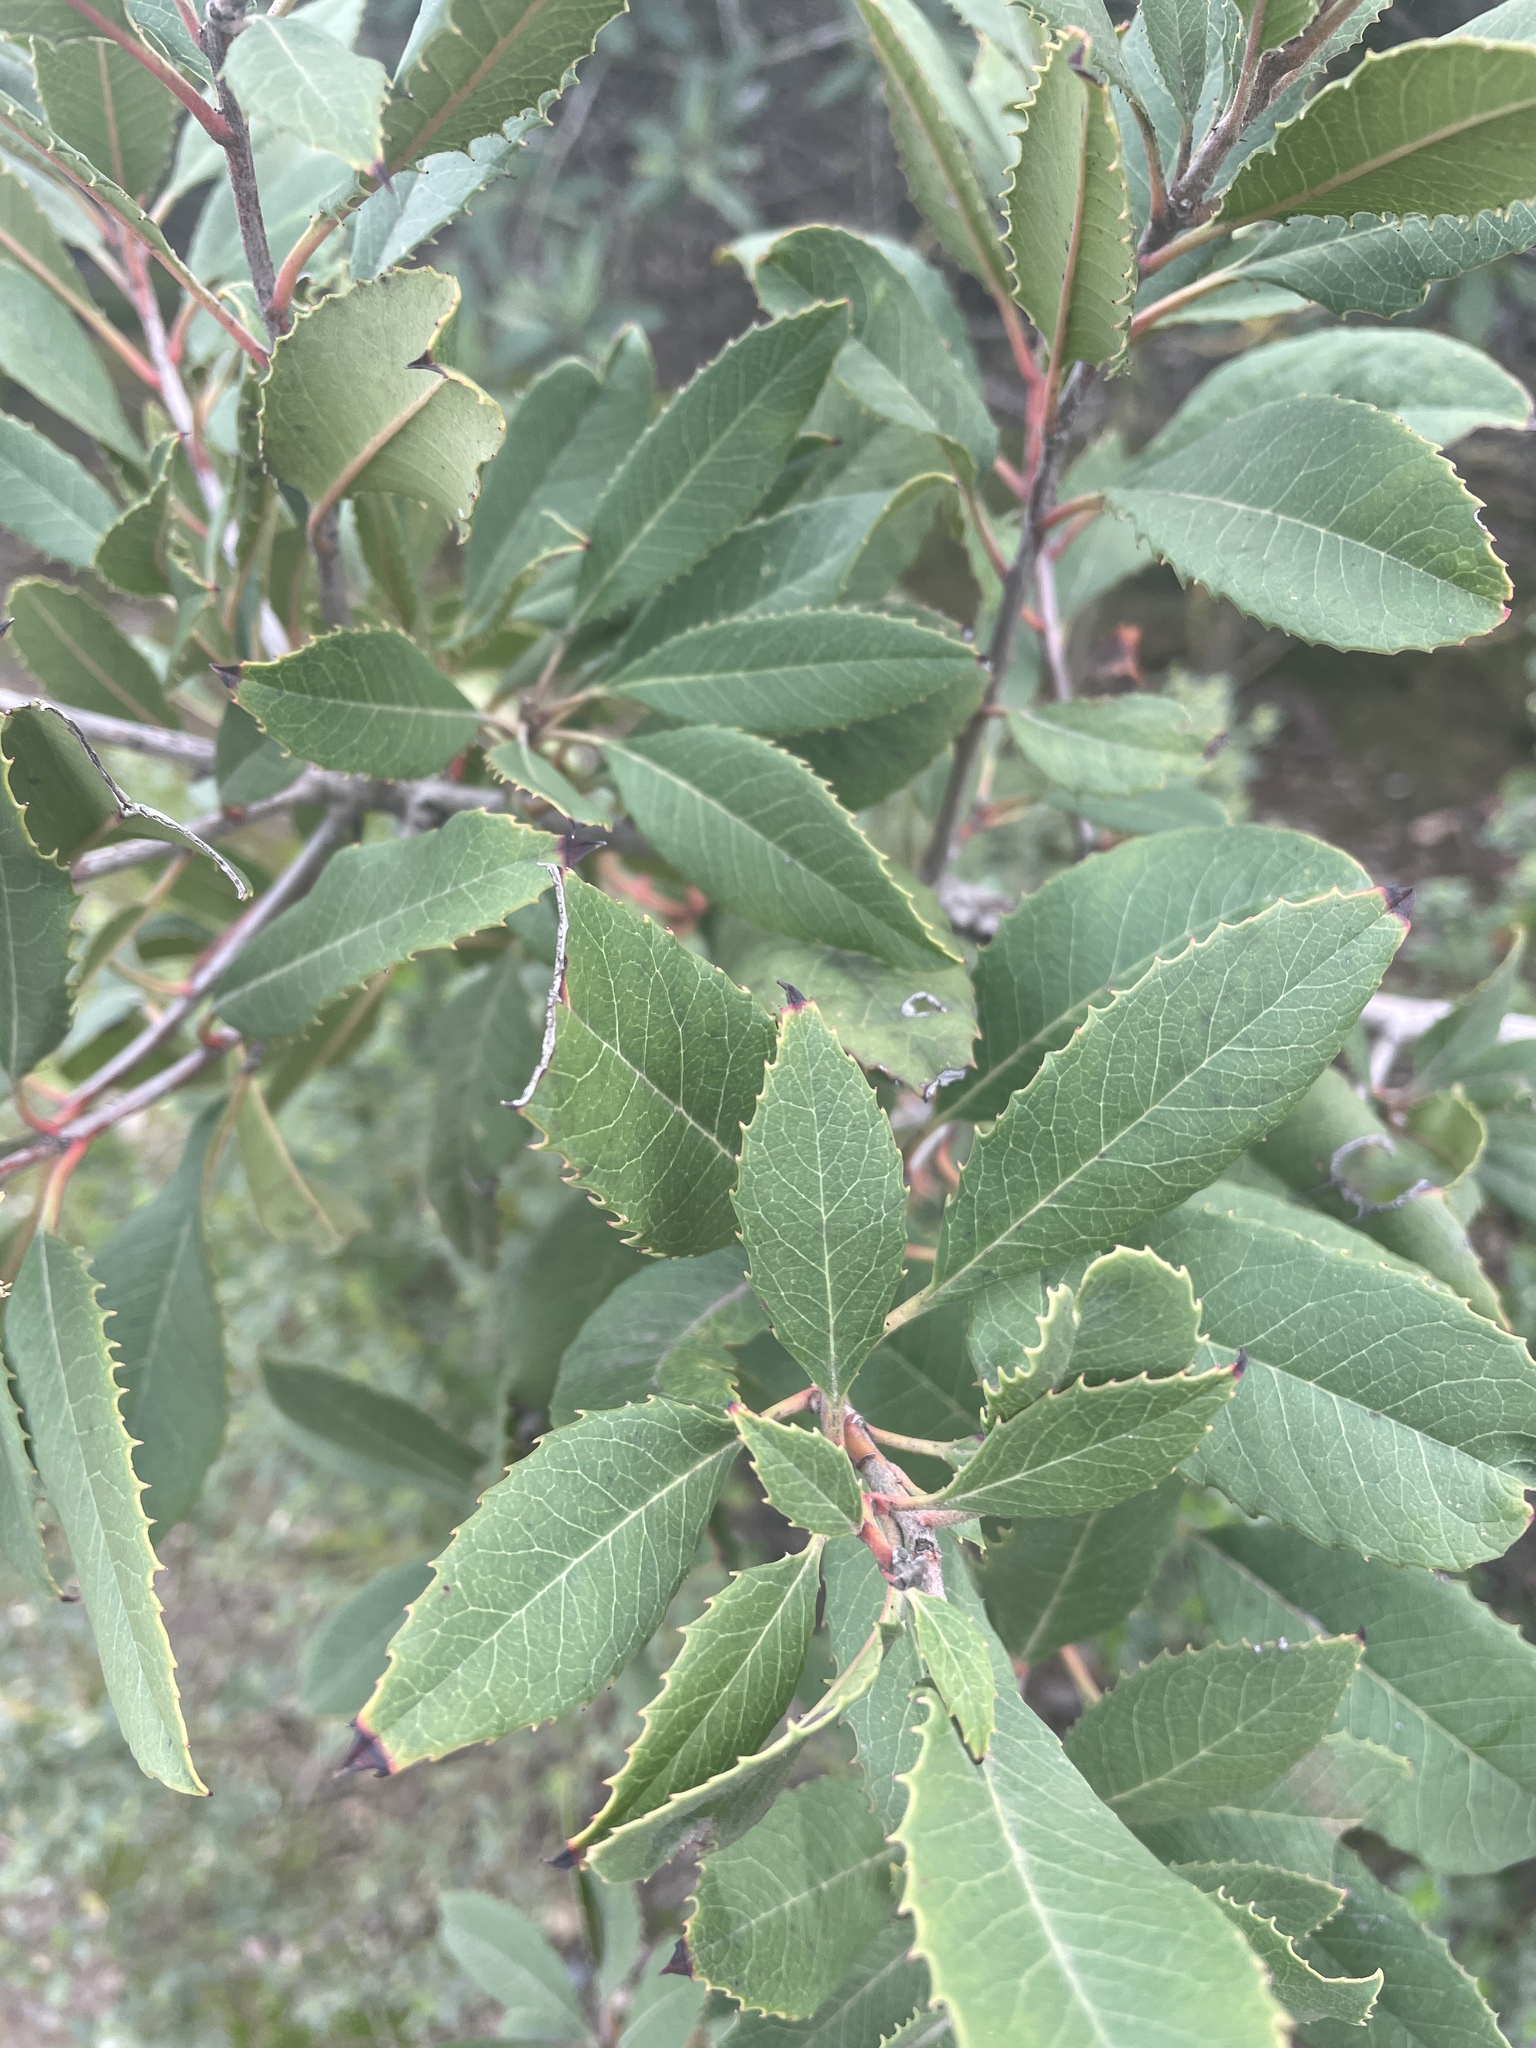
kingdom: Plantae
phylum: Tracheophyta
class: Magnoliopsida
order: Rosales
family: Rosaceae
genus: Heteromeles
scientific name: Heteromeles arbutifolia
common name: California-holly
